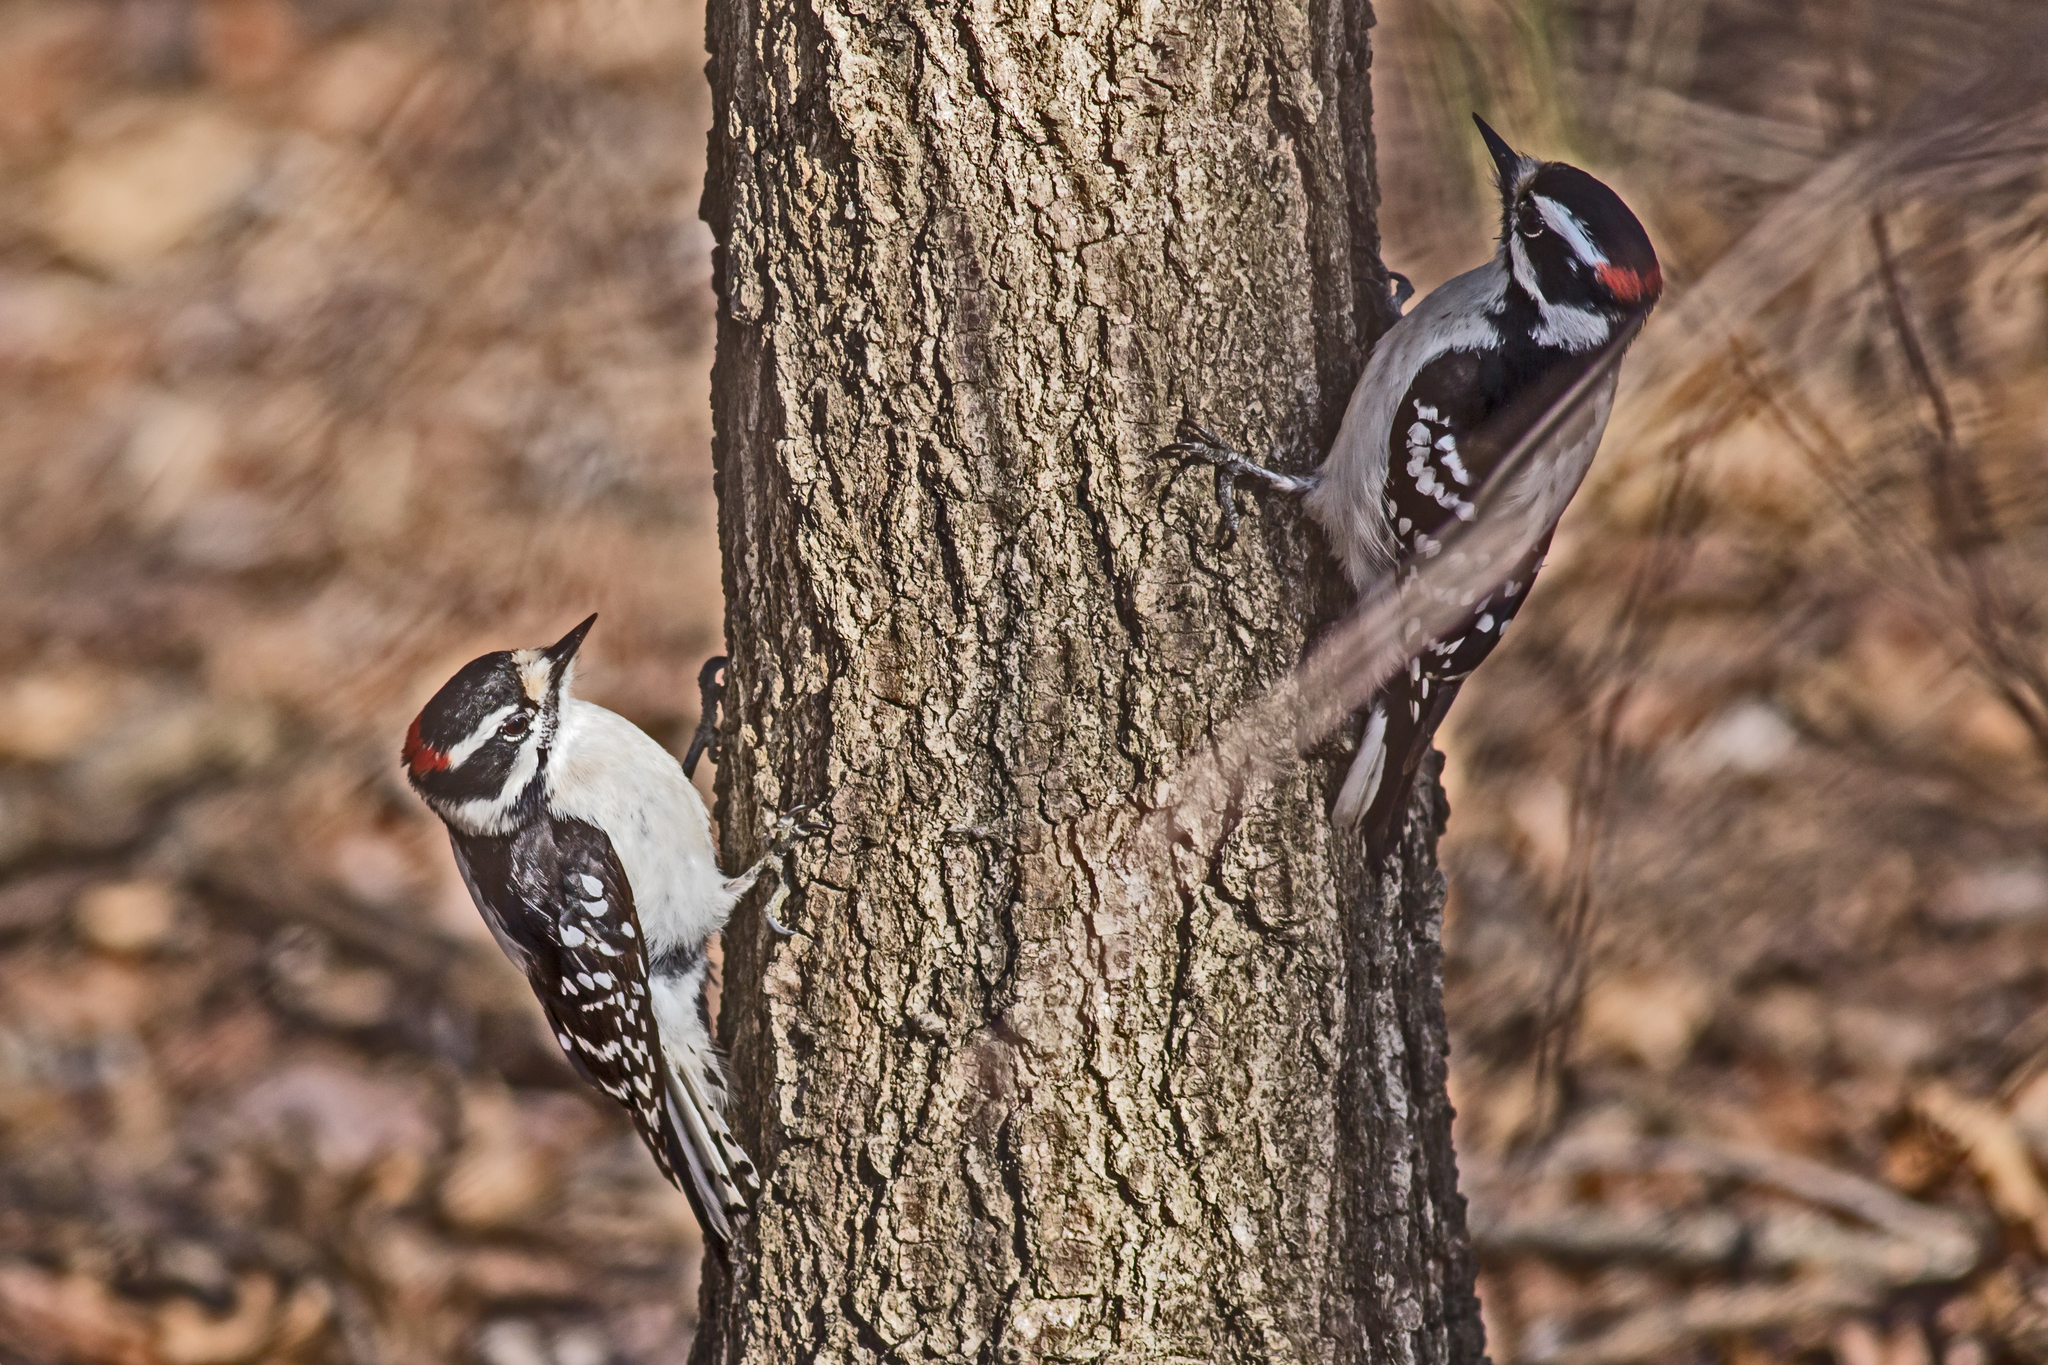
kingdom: Animalia
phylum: Chordata
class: Aves
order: Piciformes
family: Picidae
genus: Dryobates
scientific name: Dryobates pubescens
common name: Downy woodpecker
